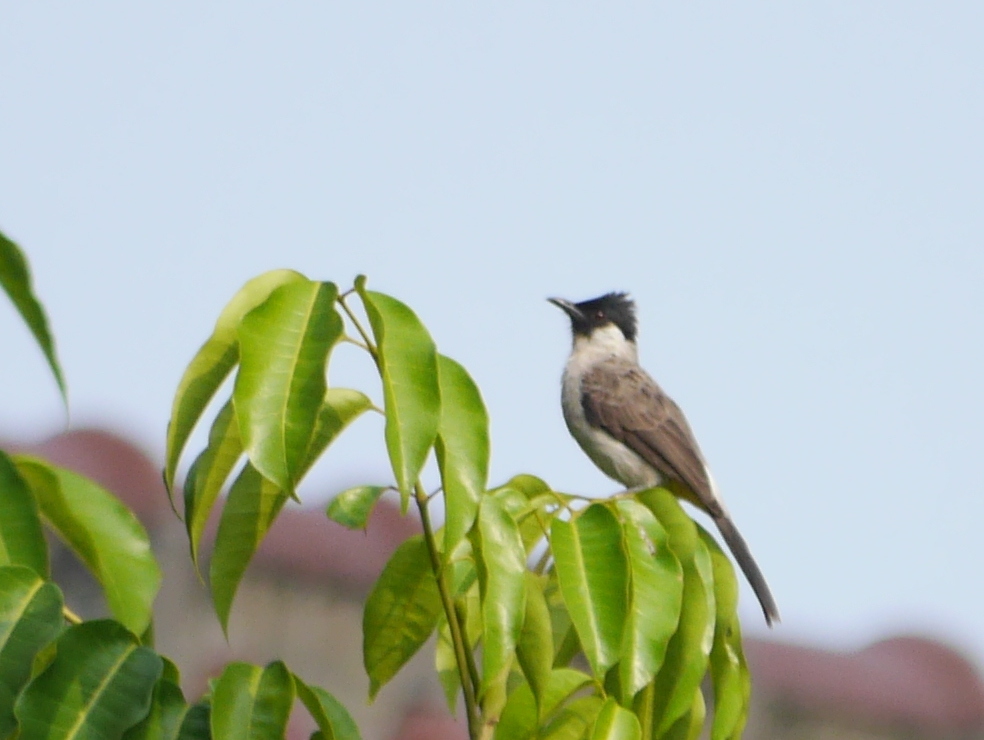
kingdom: Animalia
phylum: Chordata
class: Aves
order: Passeriformes
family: Pycnonotidae
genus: Pycnonotus
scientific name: Pycnonotus aurigaster
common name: Sooty-headed bulbul
